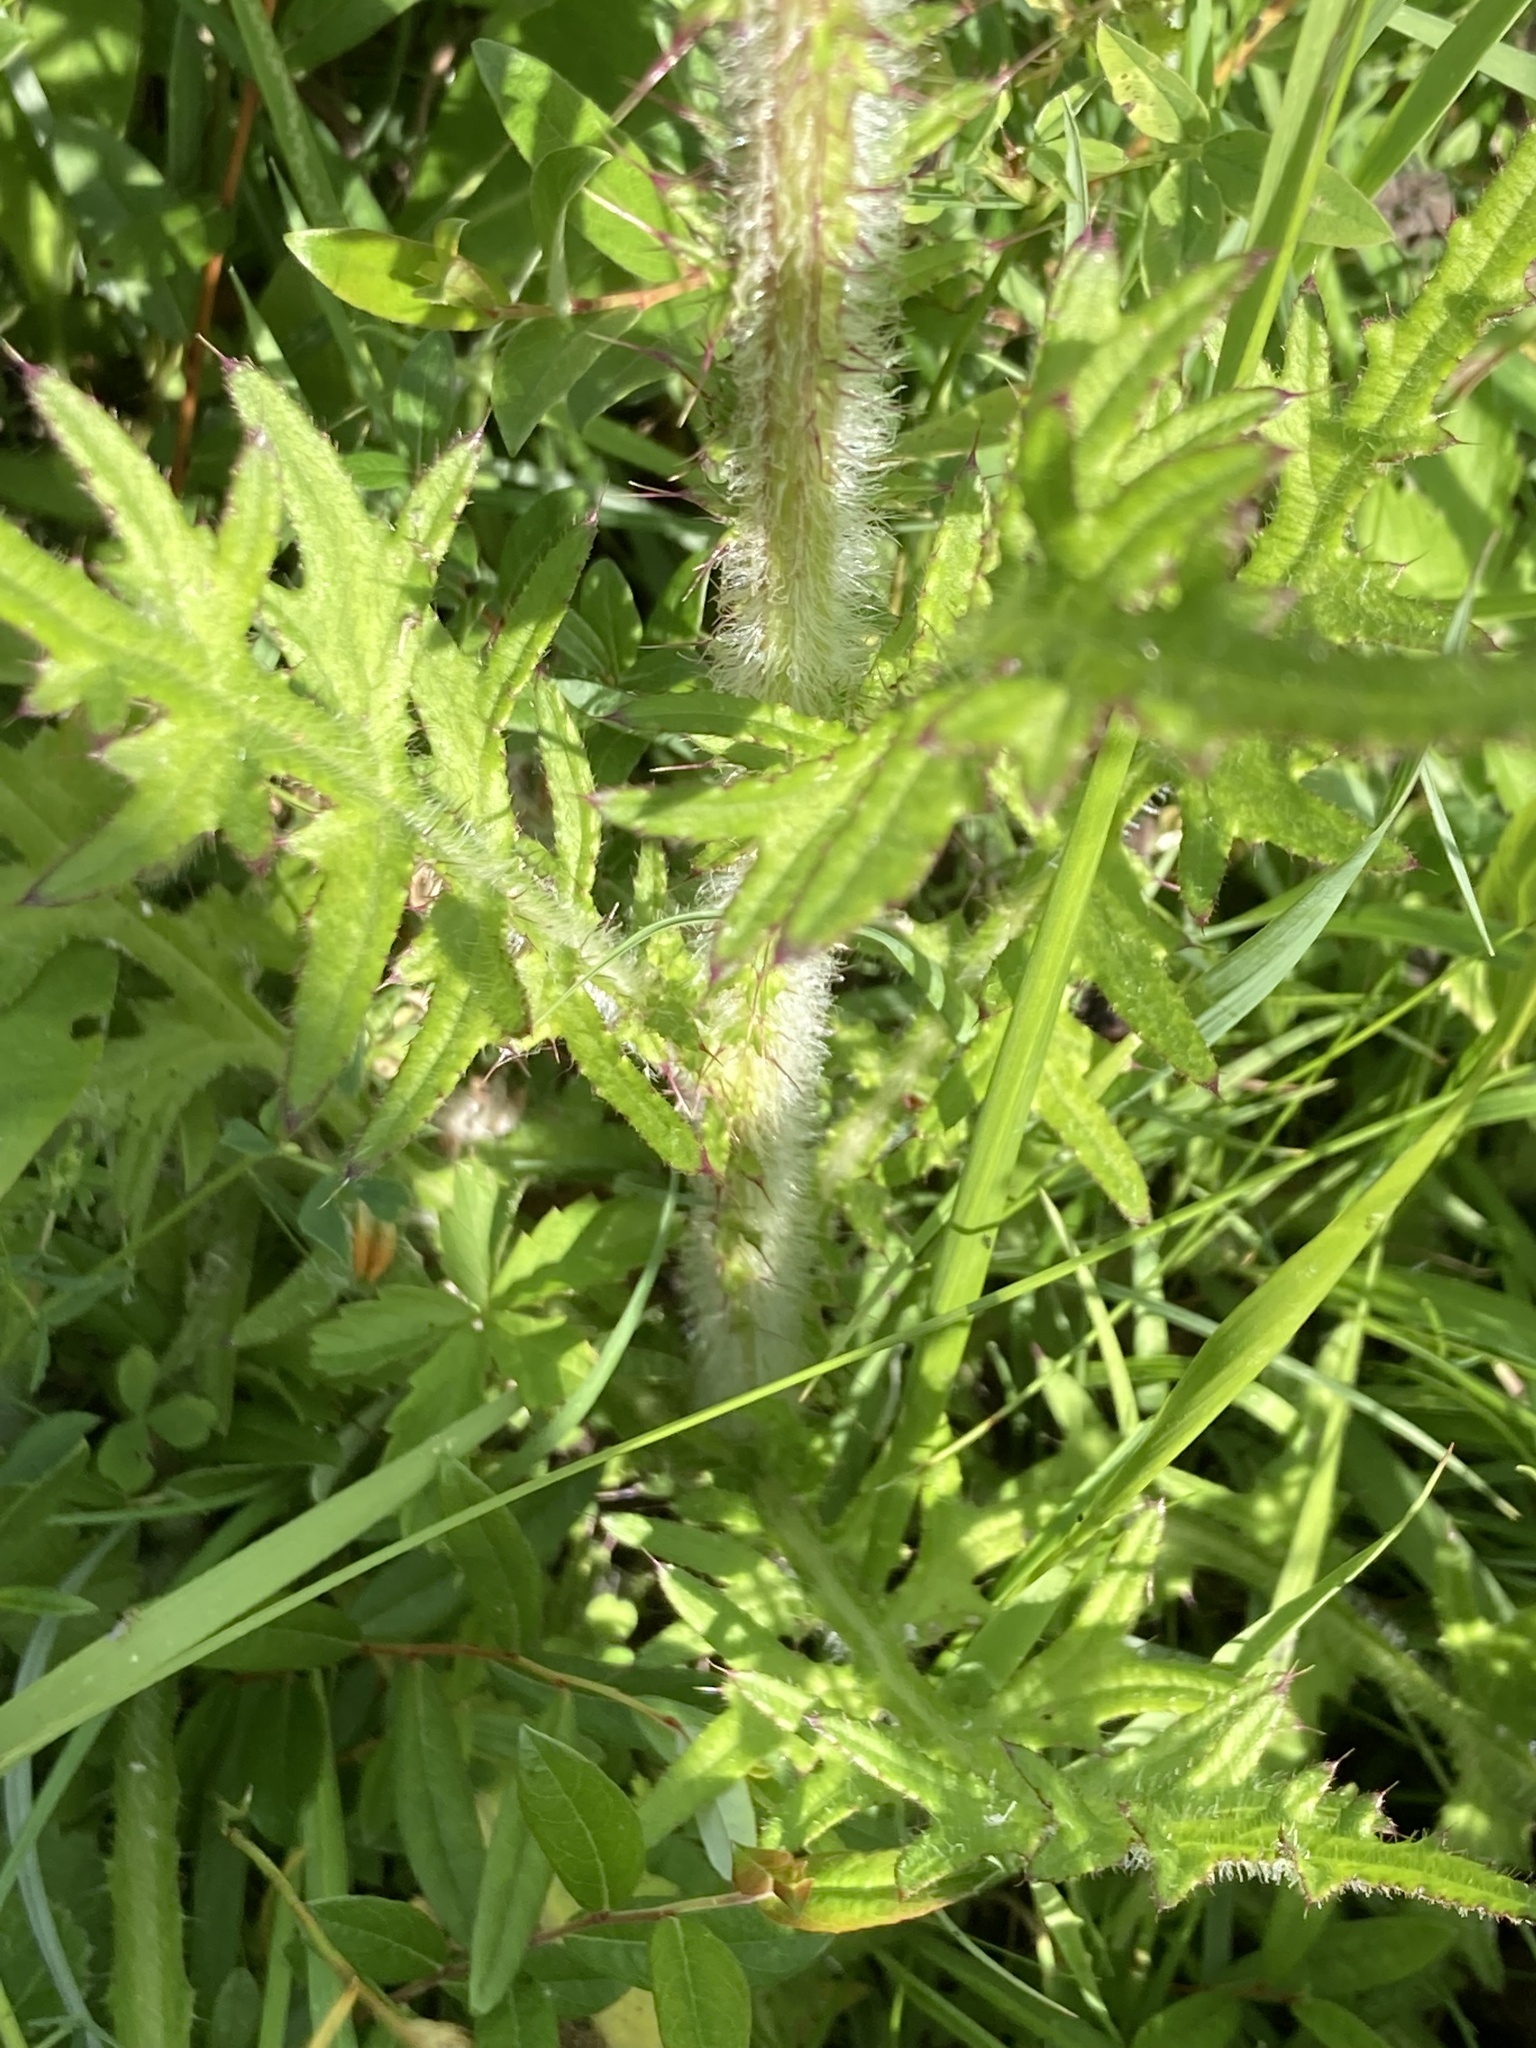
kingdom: Plantae
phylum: Tracheophyta
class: Magnoliopsida
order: Asterales
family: Asteraceae
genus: Cirsium
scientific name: Cirsium palustre
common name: Marsh thistle
